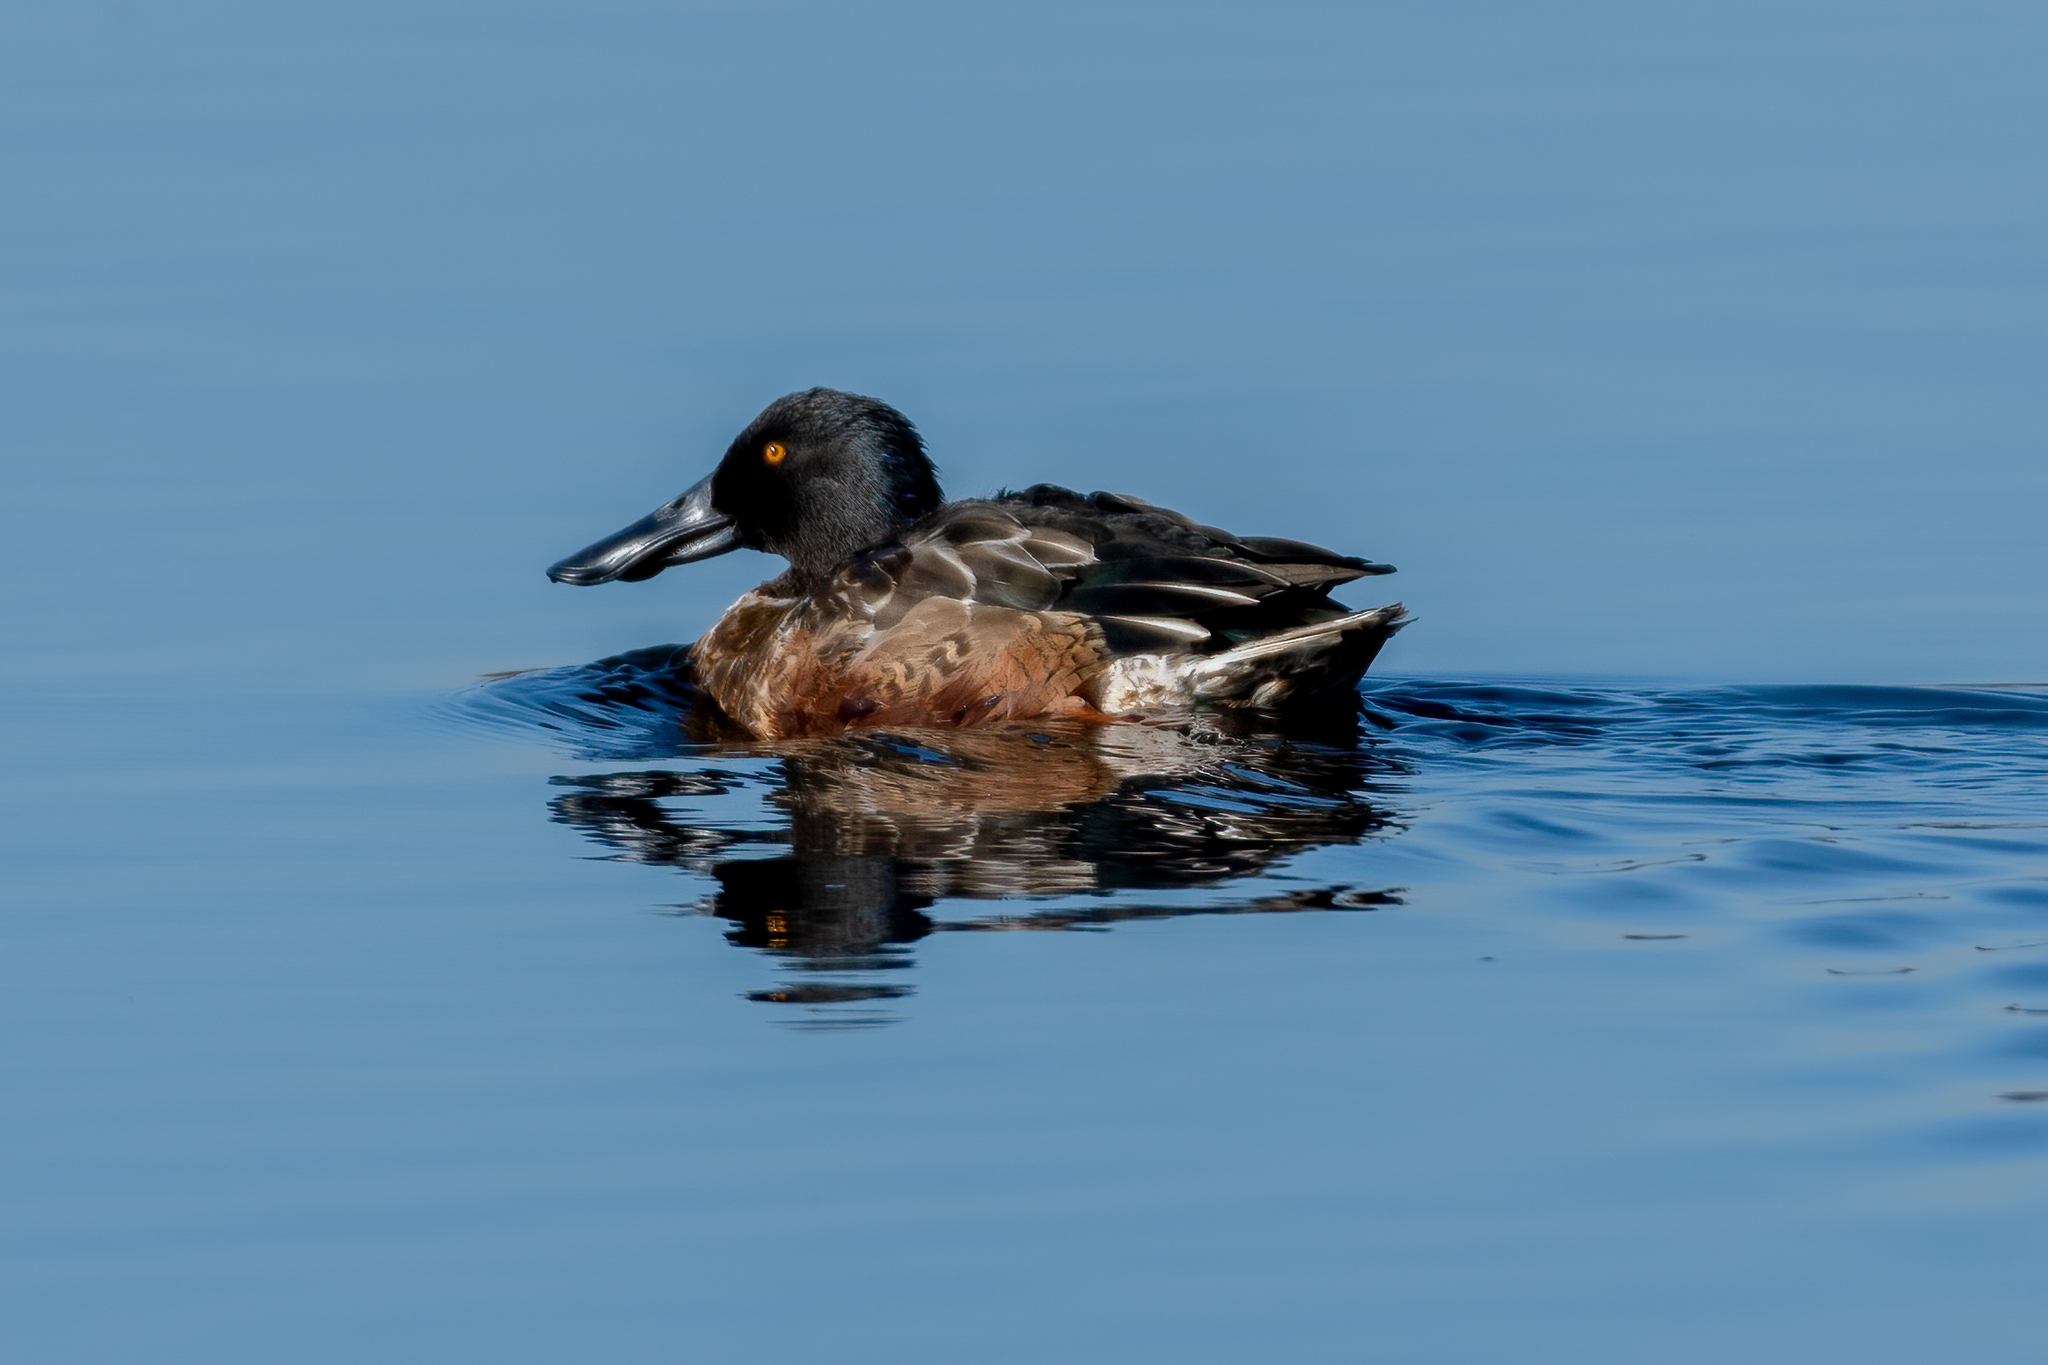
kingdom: Animalia
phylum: Chordata
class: Aves
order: Anseriformes
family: Anatidae
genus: Spatula
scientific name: Spatula clypeata
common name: Northern shoveler
